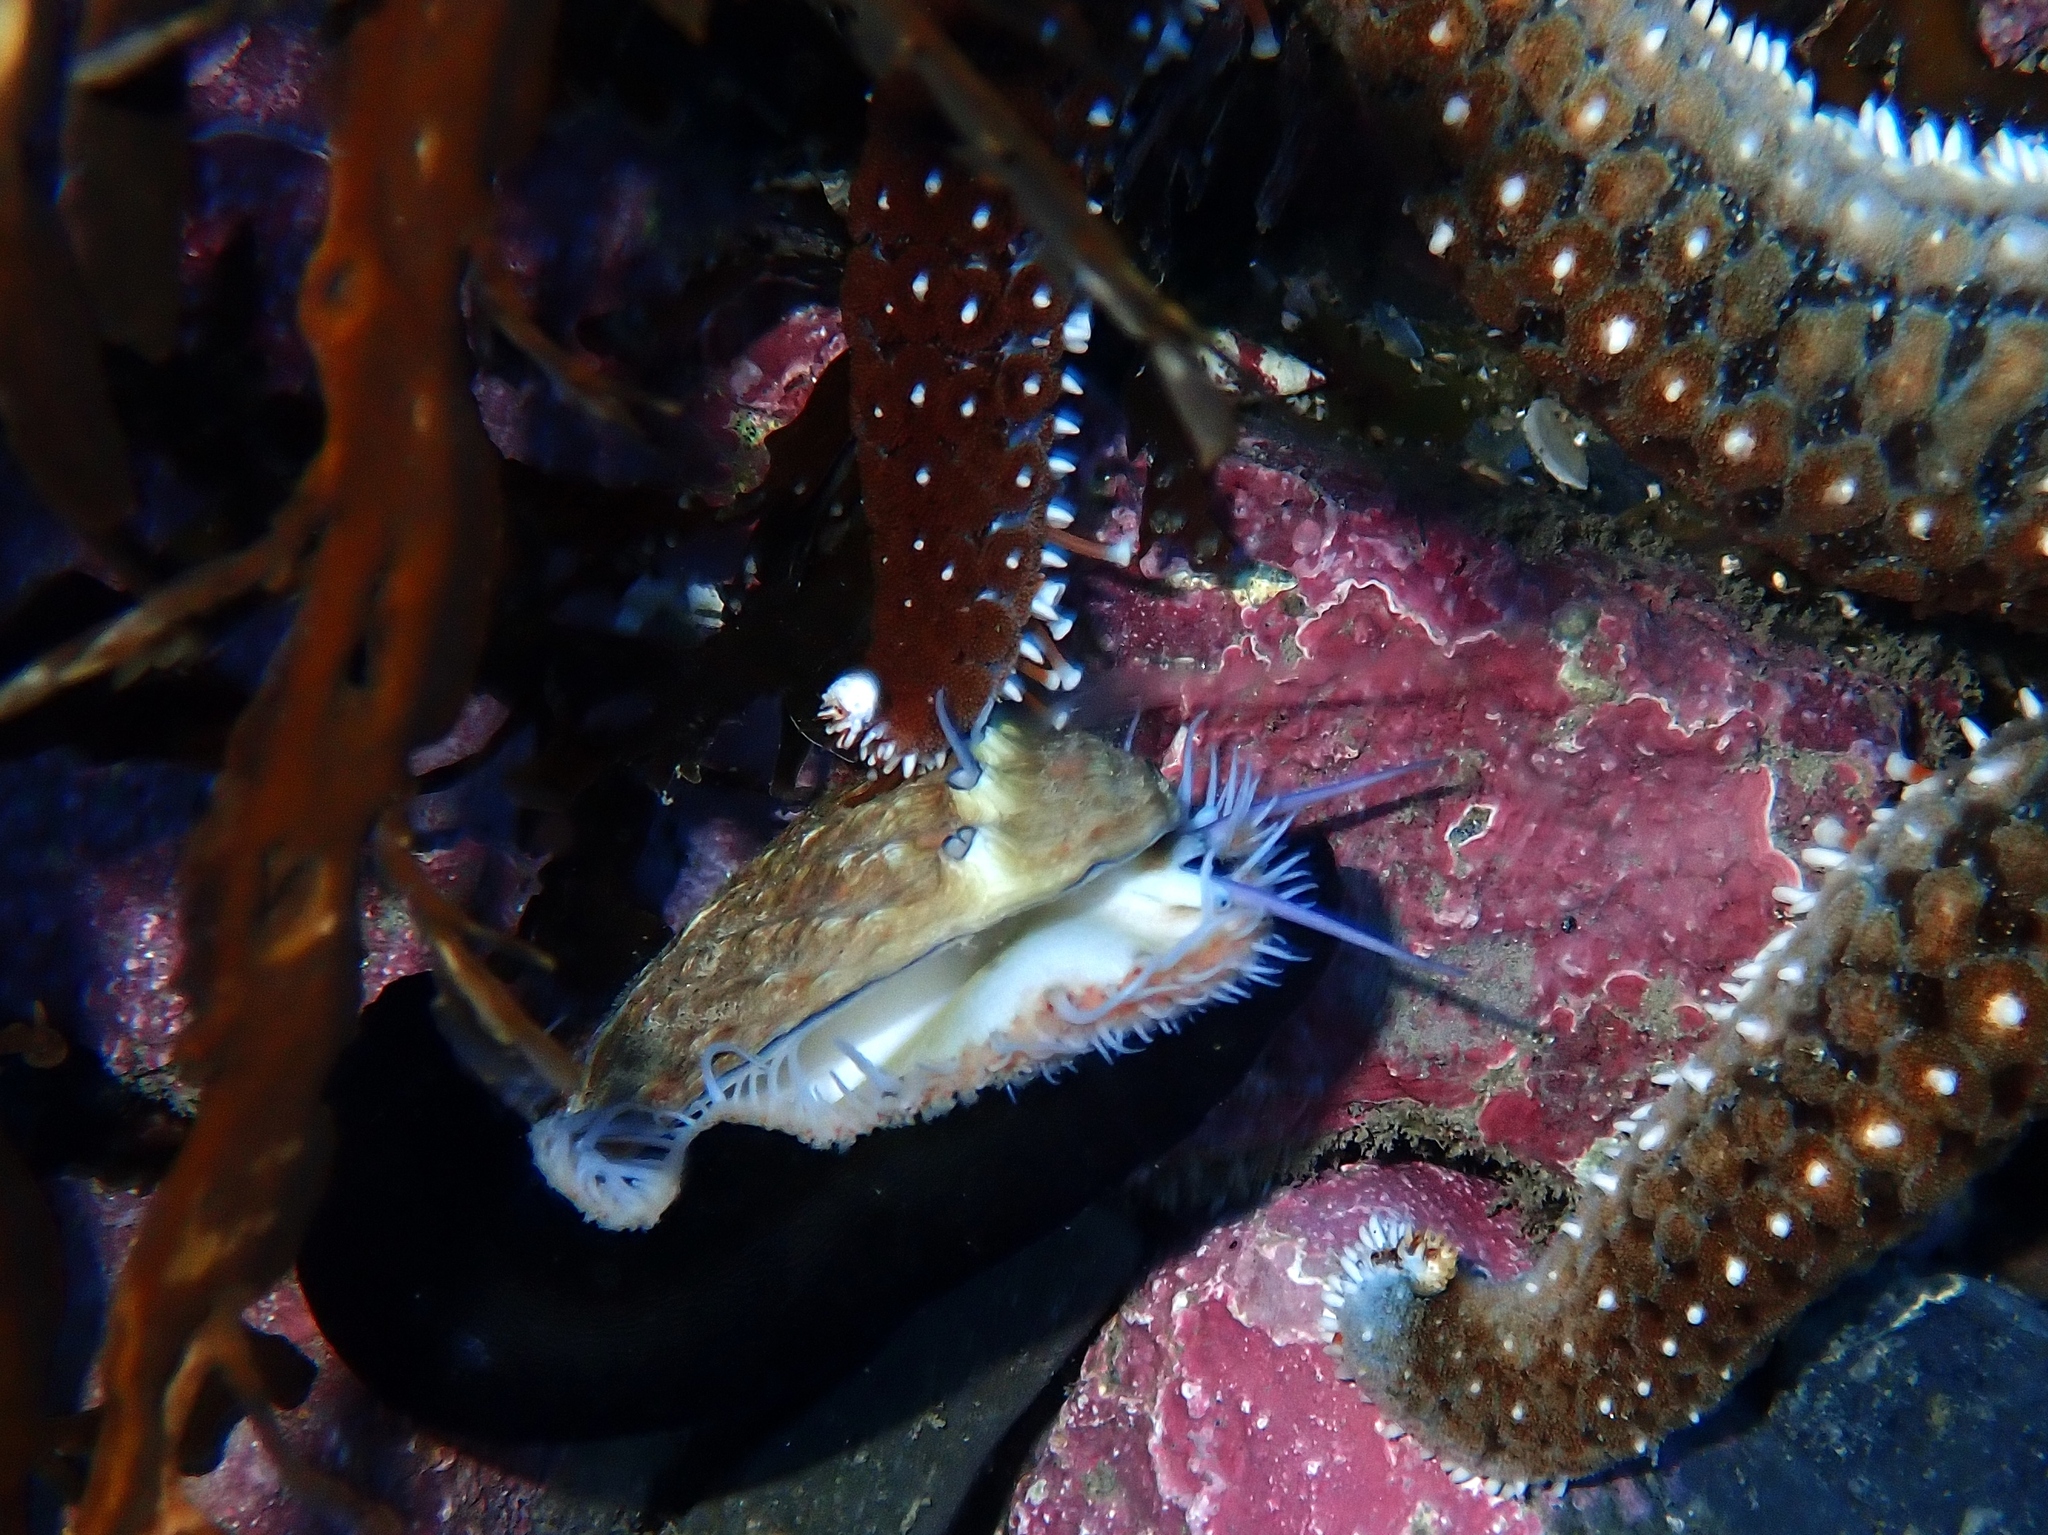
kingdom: Animalia
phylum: Mollusca
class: Gastropoda
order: Lepetellida
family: Haliotidae
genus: Haliotis
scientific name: Haliotis australis
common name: Silver abalone
